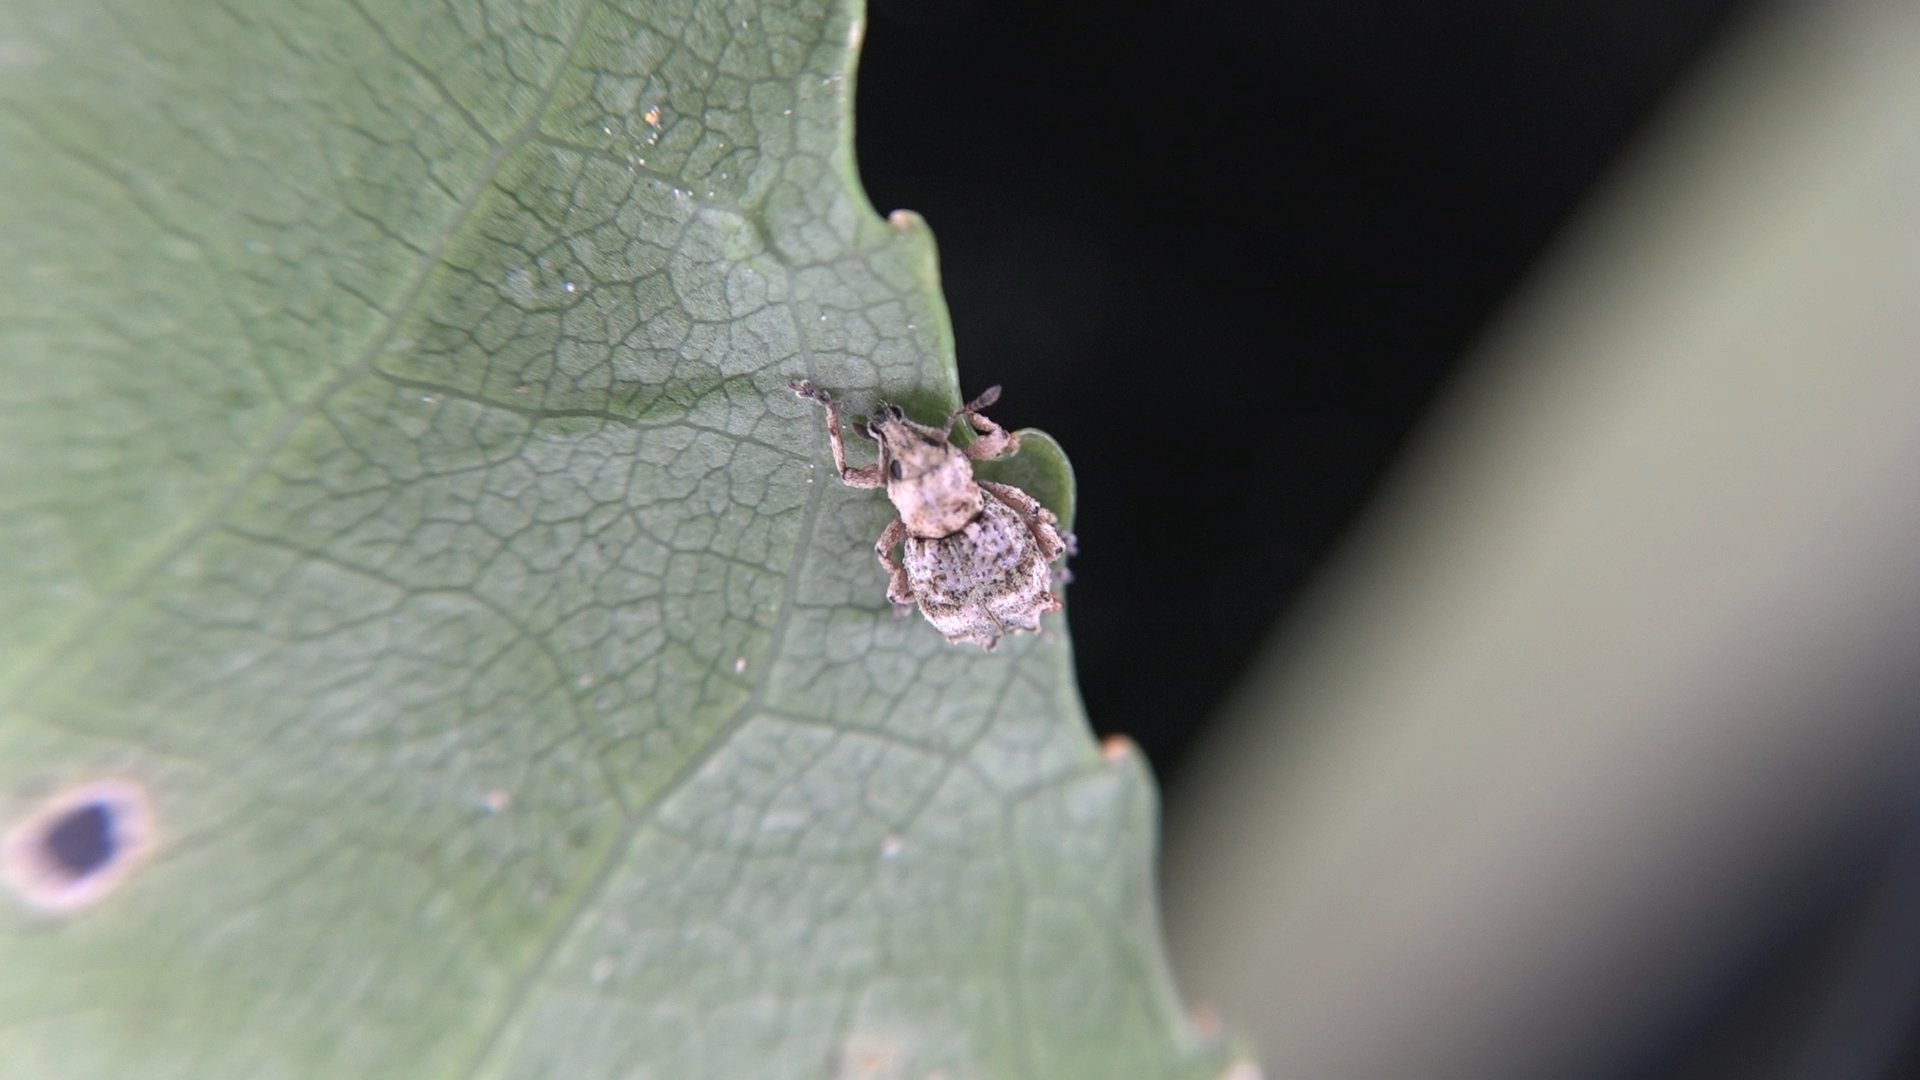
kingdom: Animalia
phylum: Arthropoda
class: Insecta
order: Coleoptera
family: Curculionidae
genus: Brachyolus
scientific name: Brachyolus punctatus
